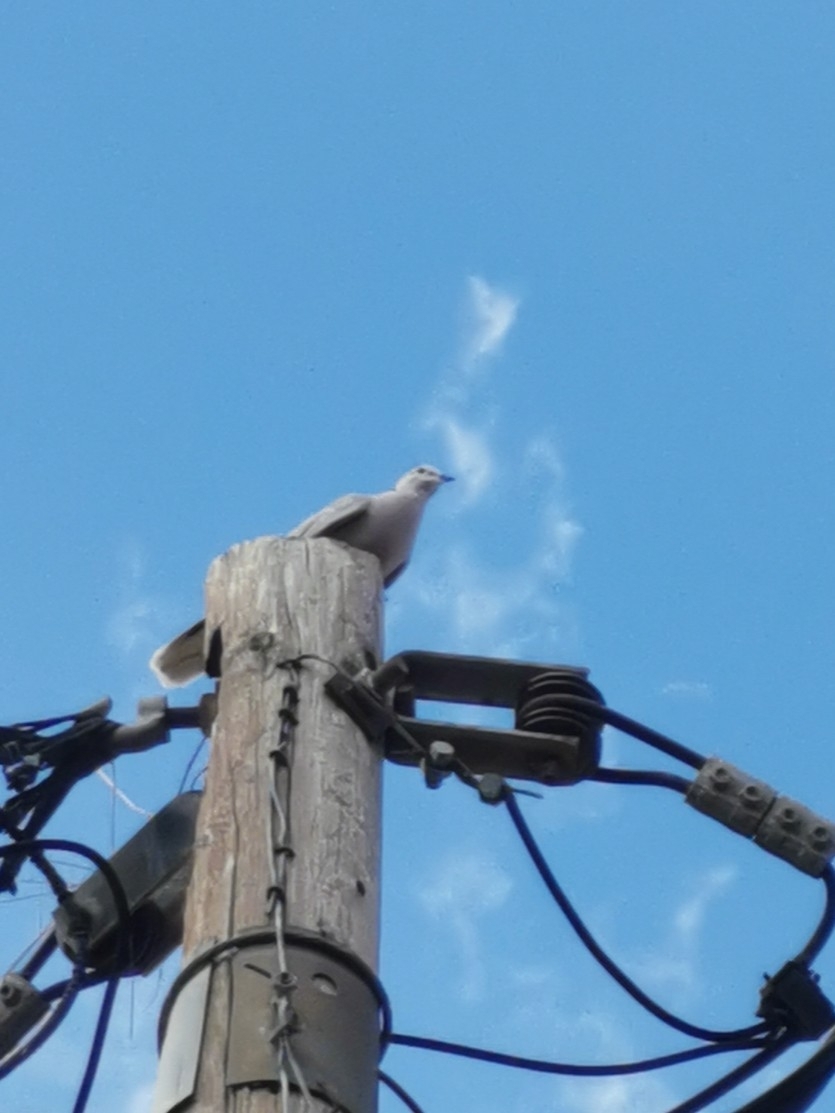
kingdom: Animalia
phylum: Chordata
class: Aves
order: Columbiformes
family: Columbidae
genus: Streptopelia
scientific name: Streptopelia decaocto
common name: Eurasian collared dove
